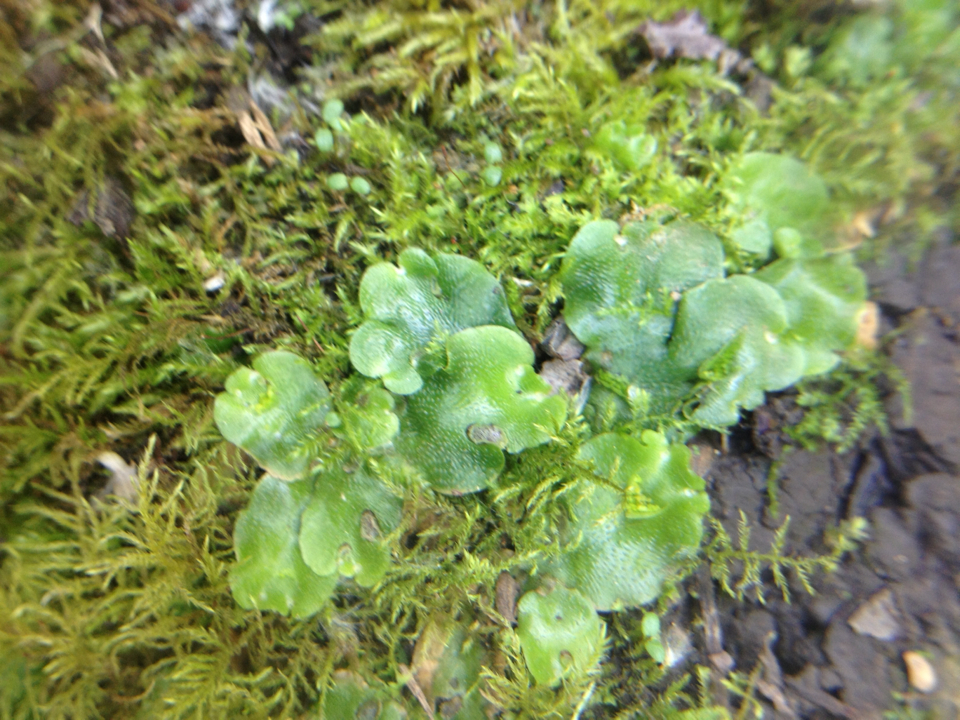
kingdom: Plantae
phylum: Marchantiophyta
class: Marchantiopsida
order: Lunulariales
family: Lunulariaceae
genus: Lunularia
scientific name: Lunularia cruciata
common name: Crescent-cup liverwort
